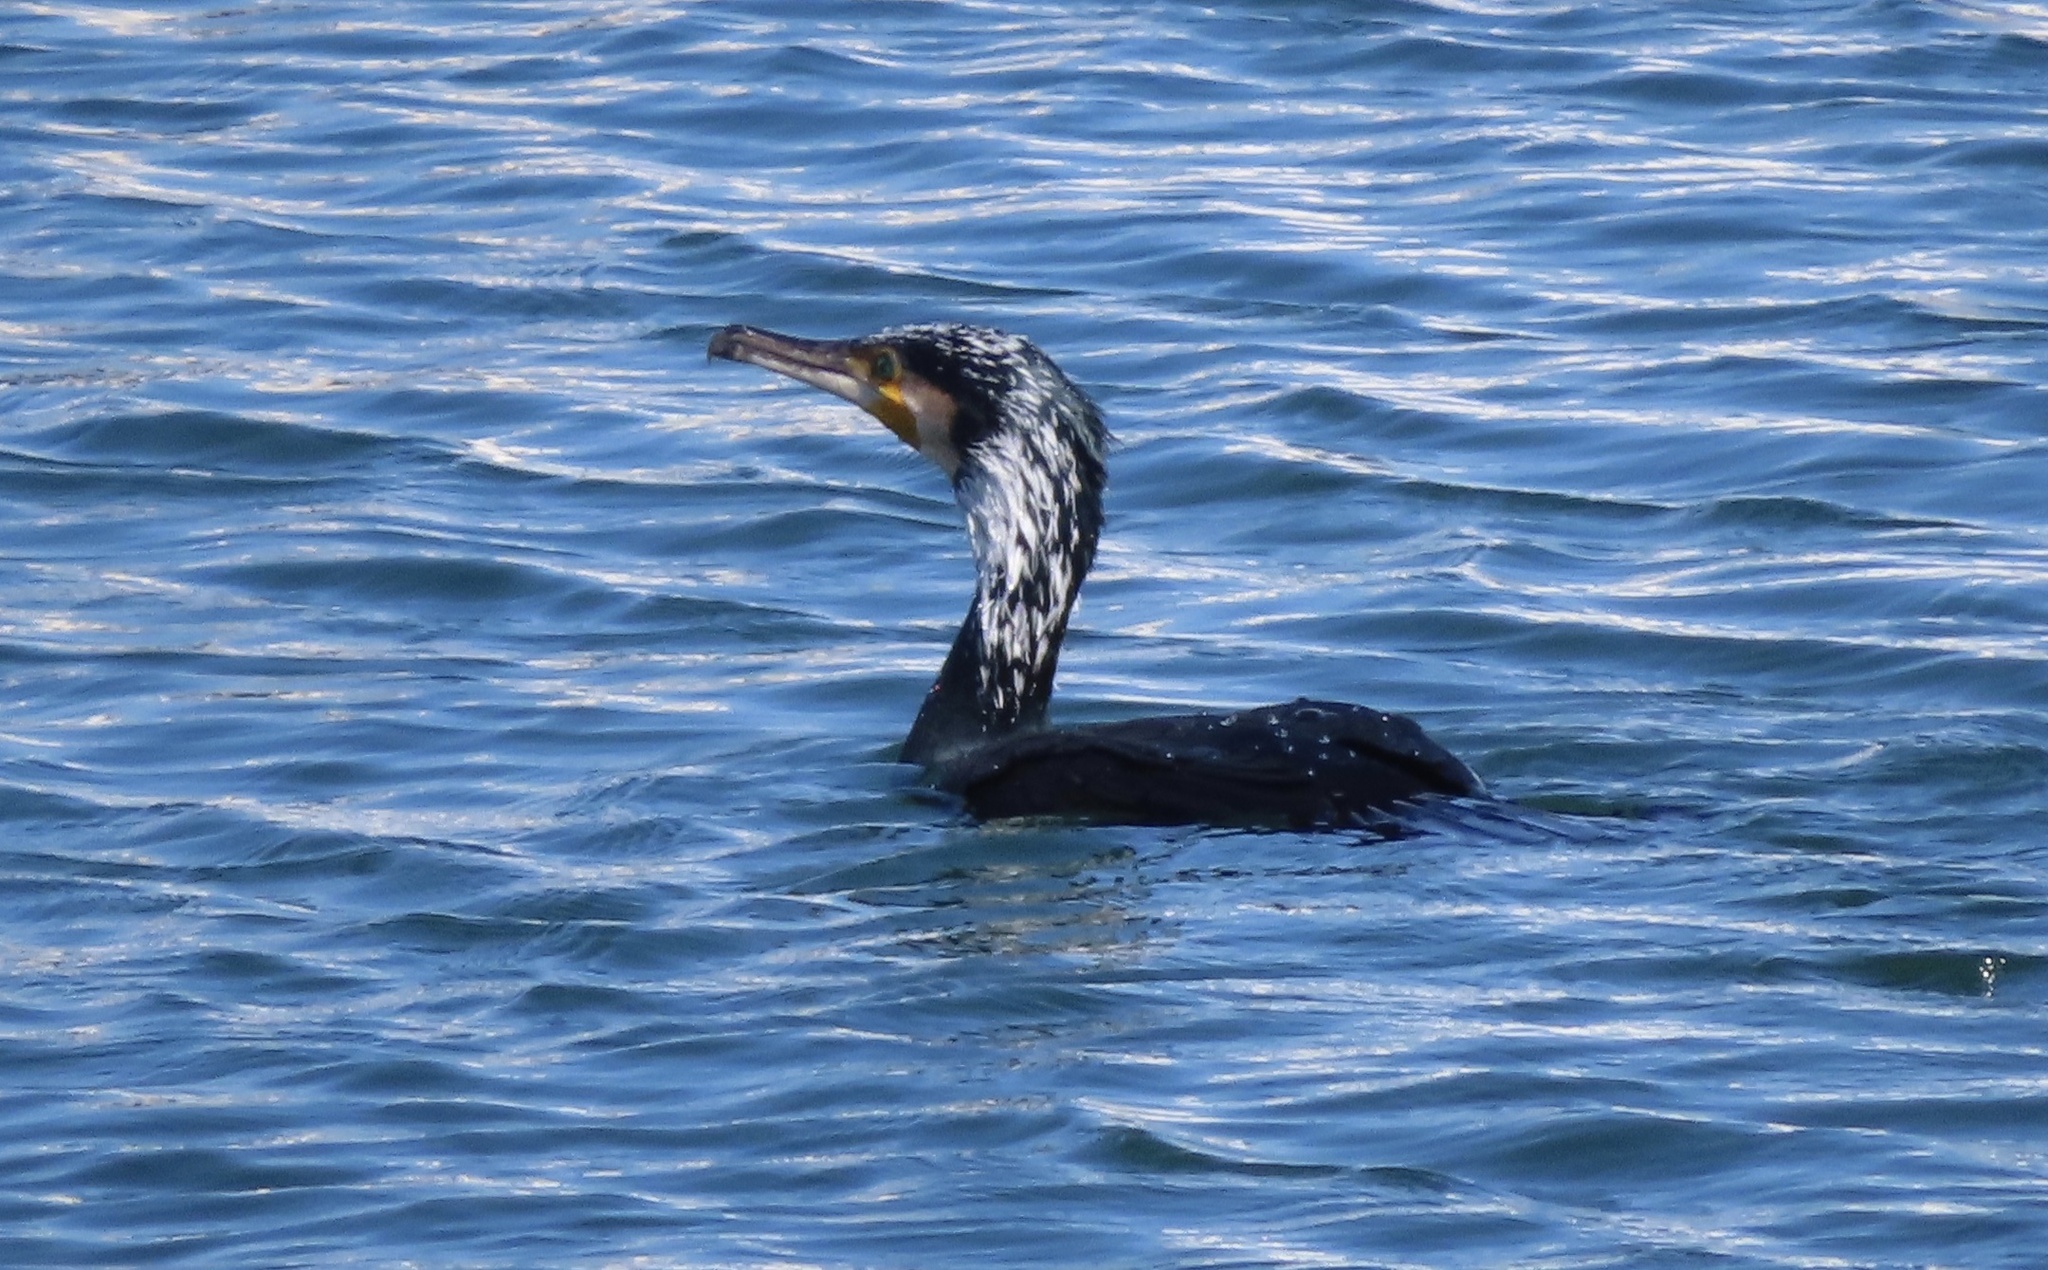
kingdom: Animalia
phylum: Chordata
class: Aves
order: Suliformes
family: Phalacrocoracidae
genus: Phalacrocorax
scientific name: Phalacrocorax carbo
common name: Great cormorant
